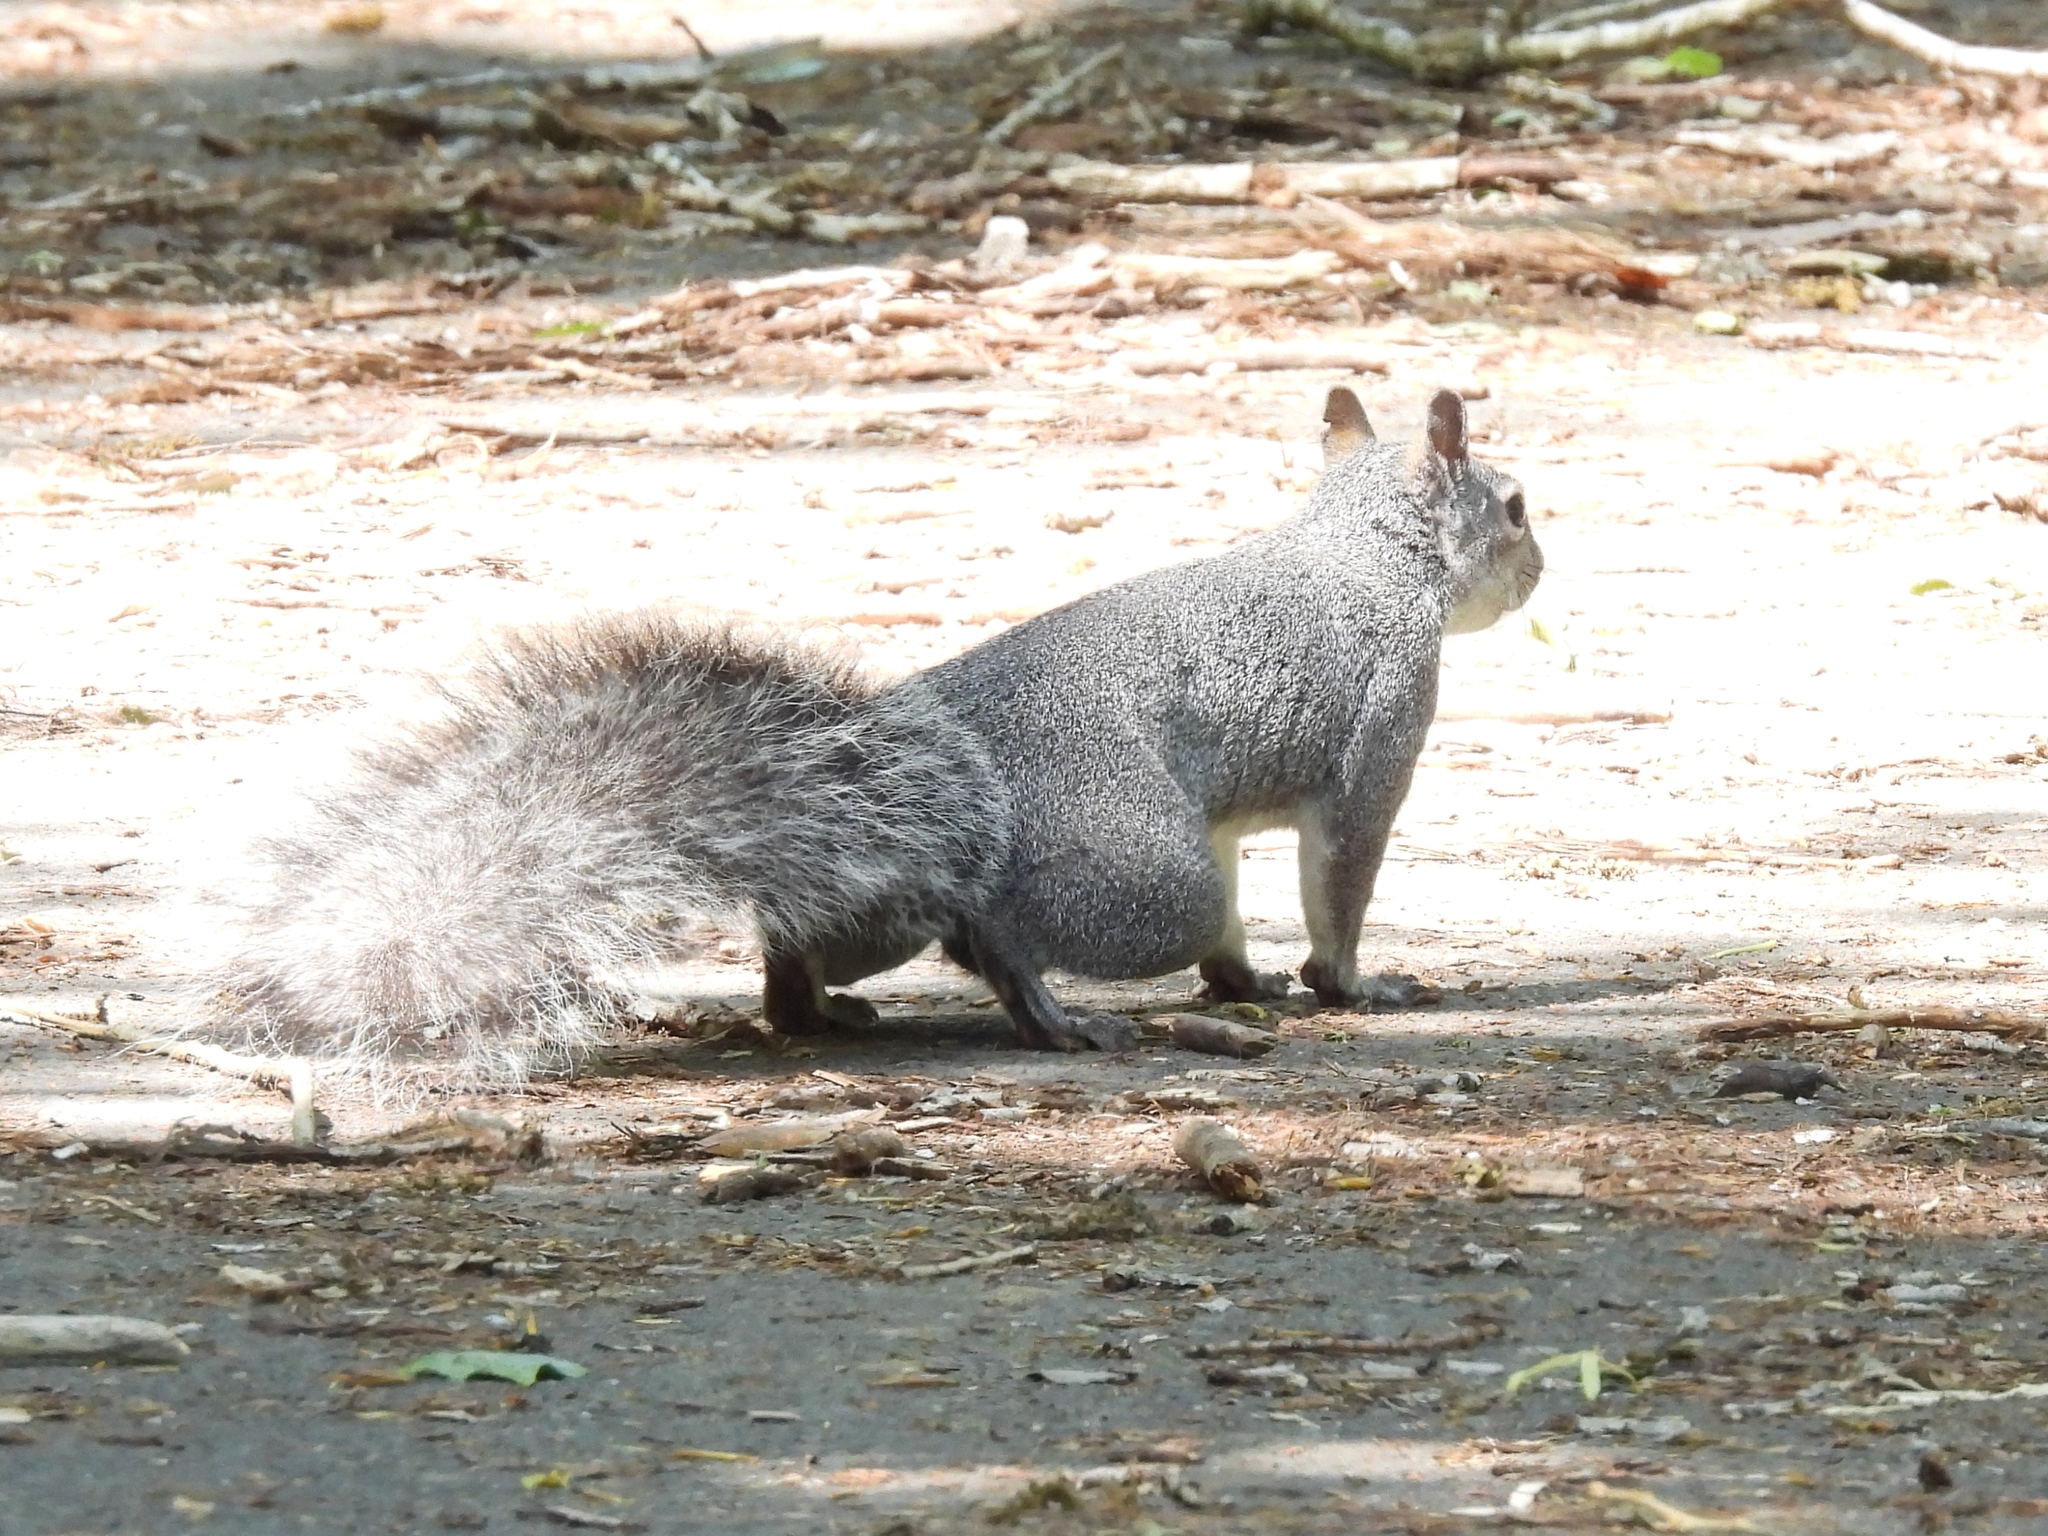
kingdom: Animalia
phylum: Chordata
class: Mammalia
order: Rodentia
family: Sciuridae
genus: Sciurus
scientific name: Sciurus griseus
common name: Western gray squirrel
